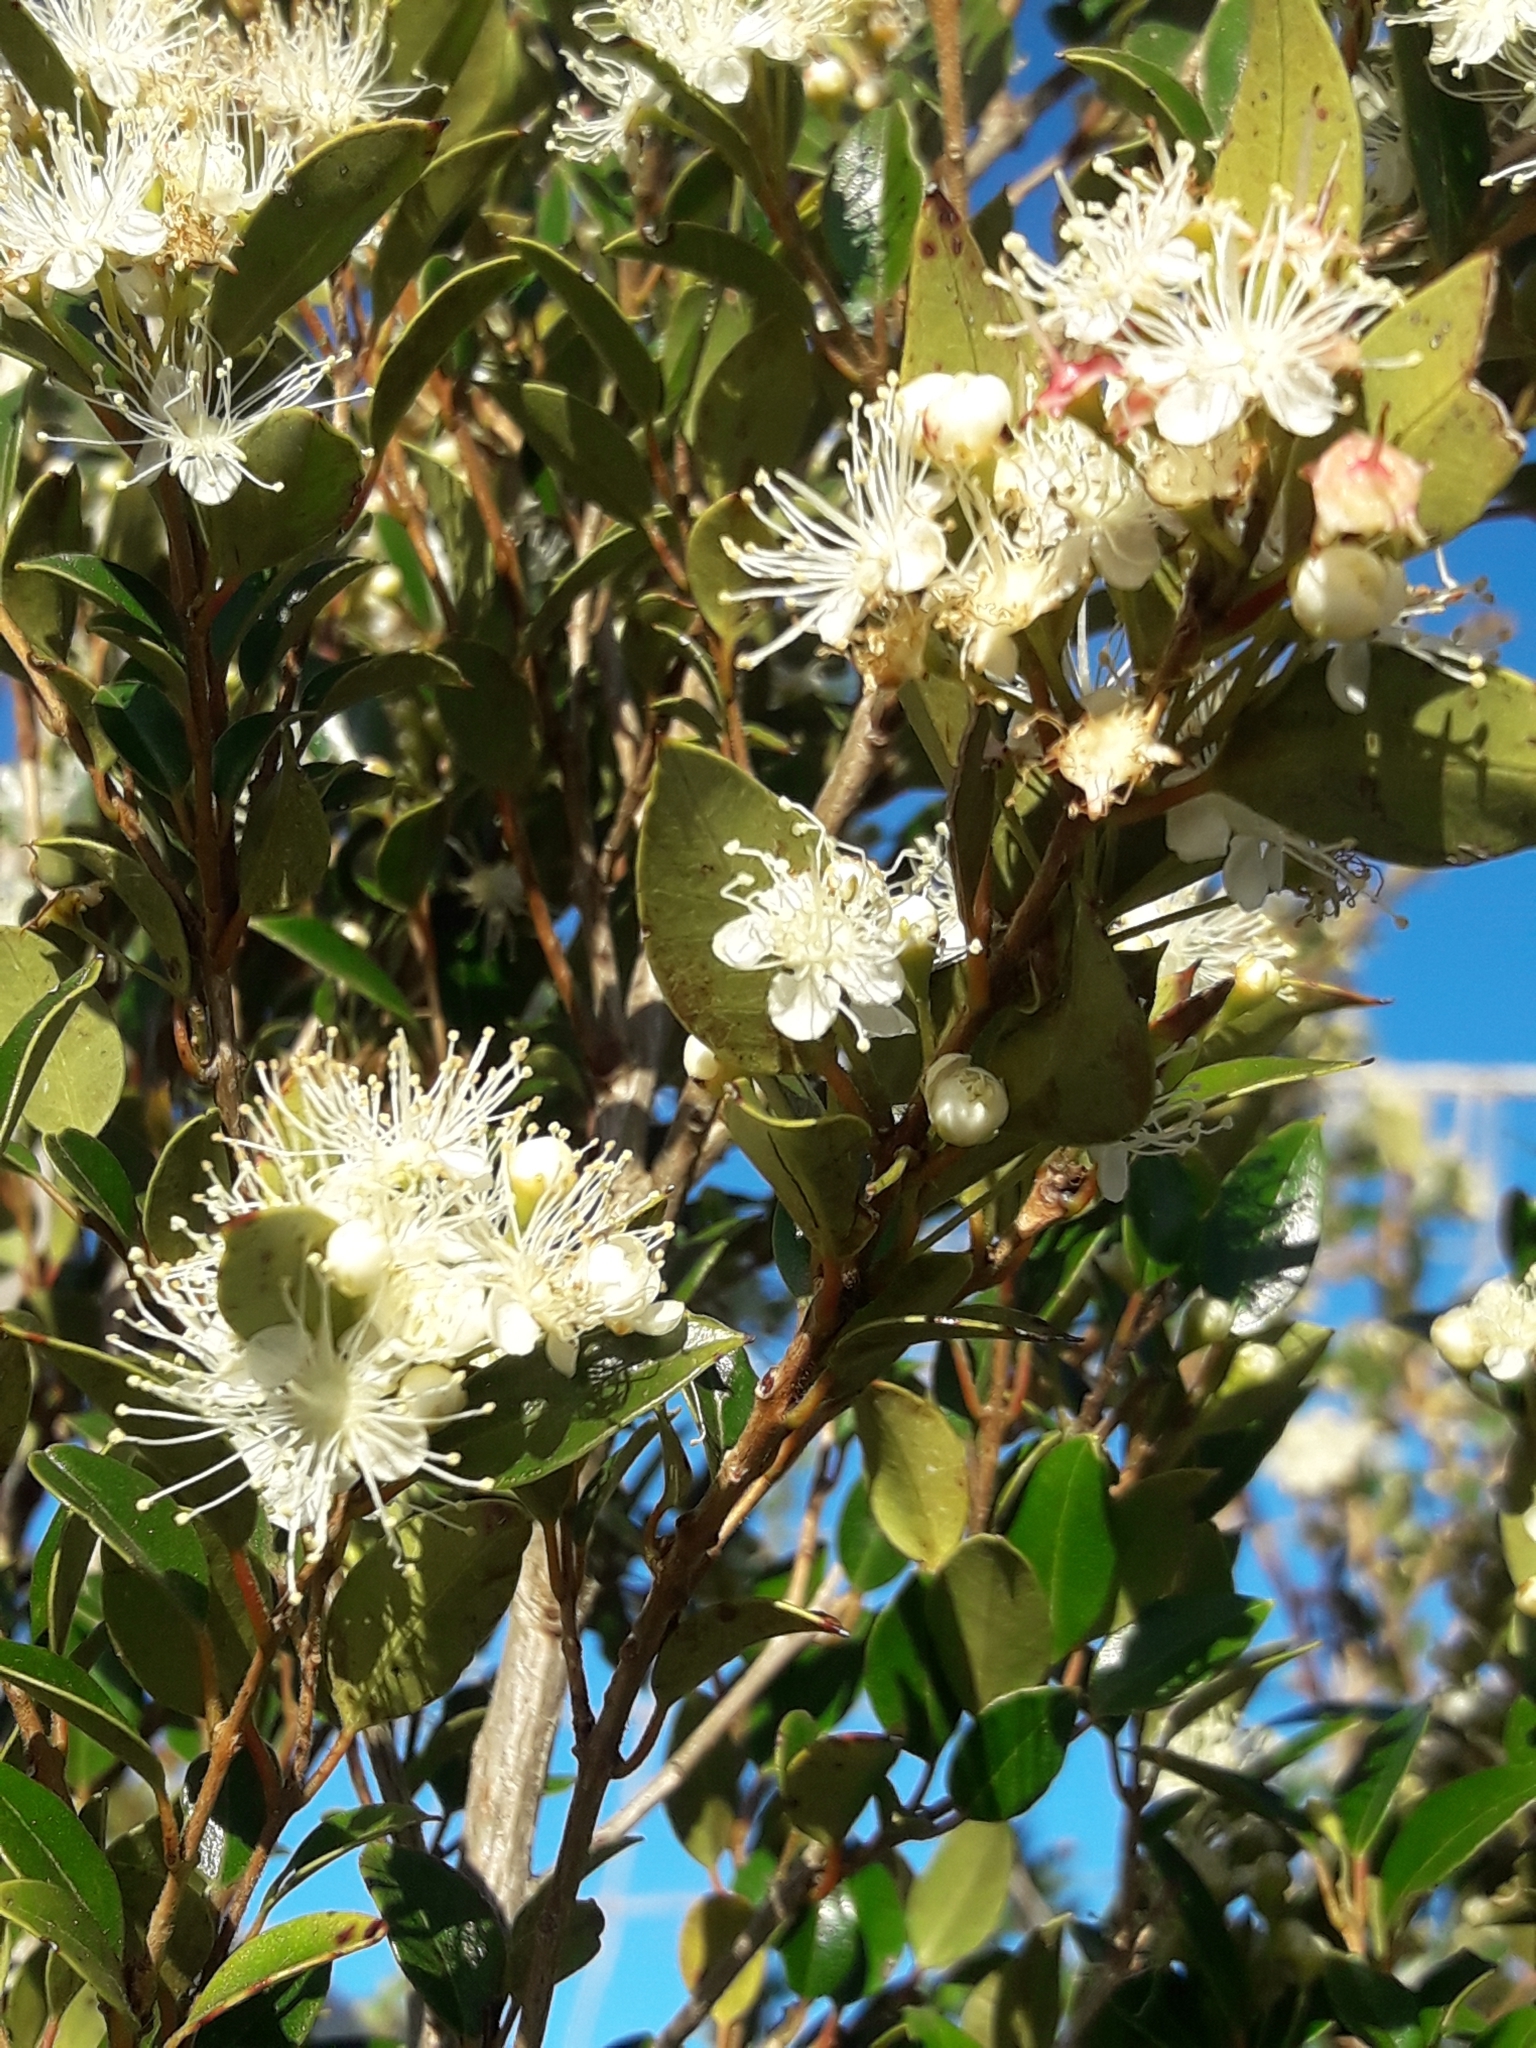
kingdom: Plantae
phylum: Tracheophyta
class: Magnoliopsida
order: Myrtales
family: Myrtaceae
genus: Amomyrtus
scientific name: Amomyrtus luma
